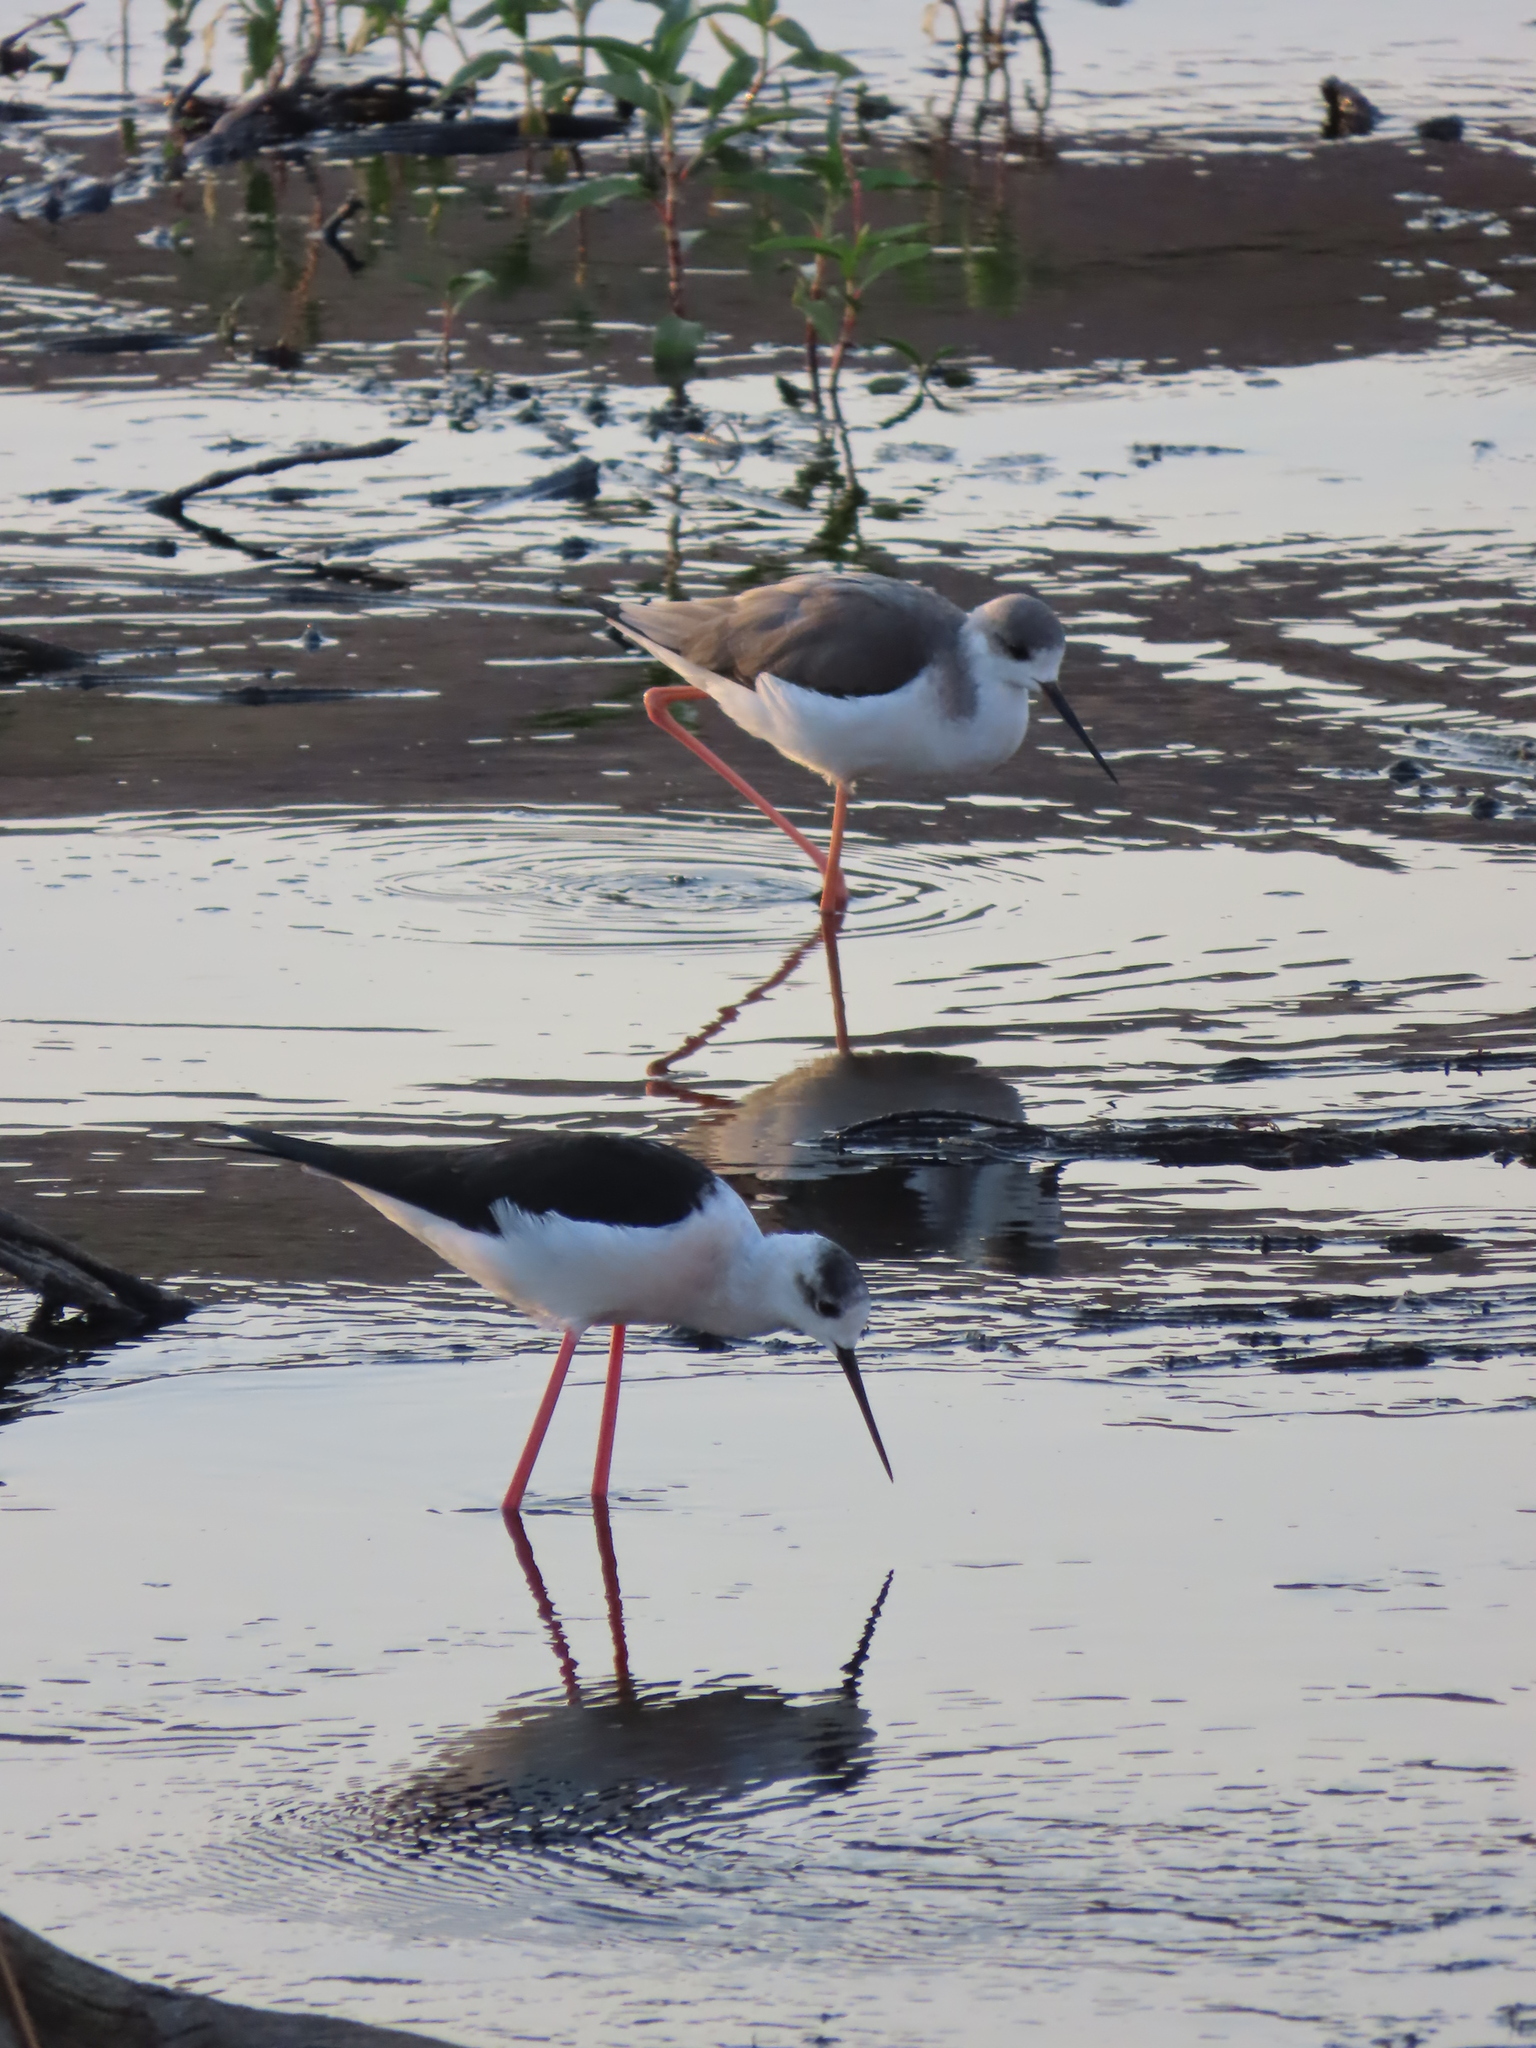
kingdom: Animalia
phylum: Chordata
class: Aves
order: Charadriiformes
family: Recurvirostridae
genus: Himantopus
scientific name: Himantopus himantopus
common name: Black-winged stilt
